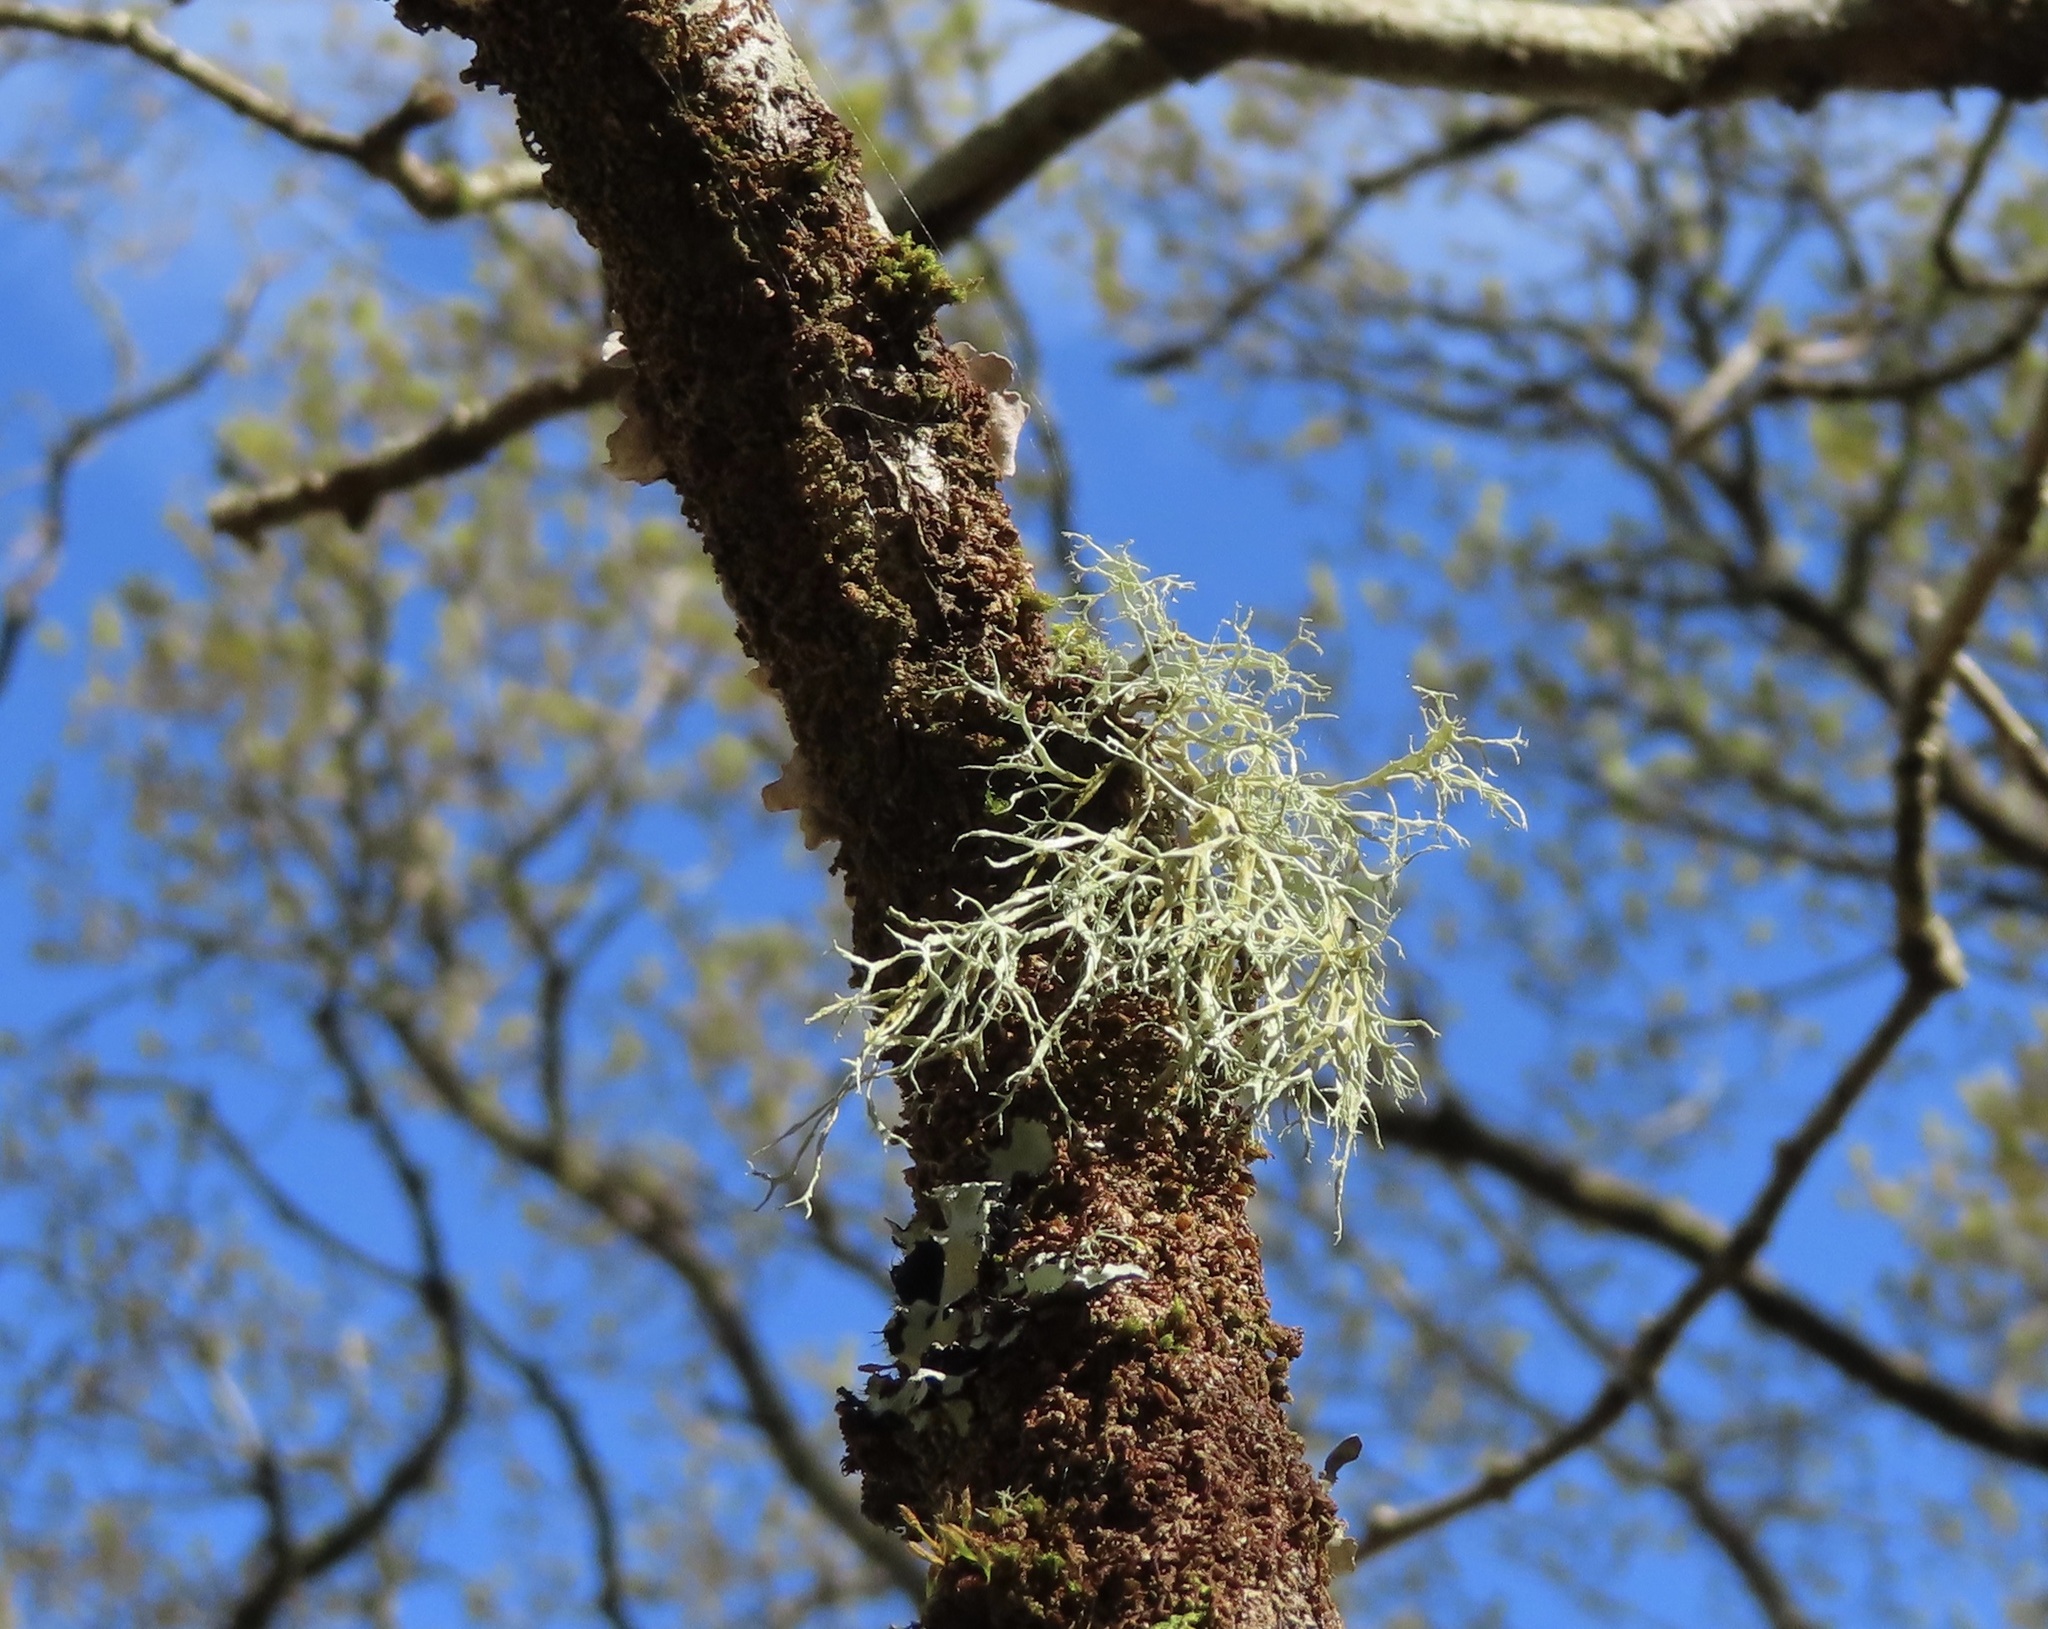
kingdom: Fungi
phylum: Ascomycota
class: Lecanoromycetes
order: Lecanorales
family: Ramalinaceae
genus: Ramalina
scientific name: Ramalina farinacea
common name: Farinose cartilage lichen
